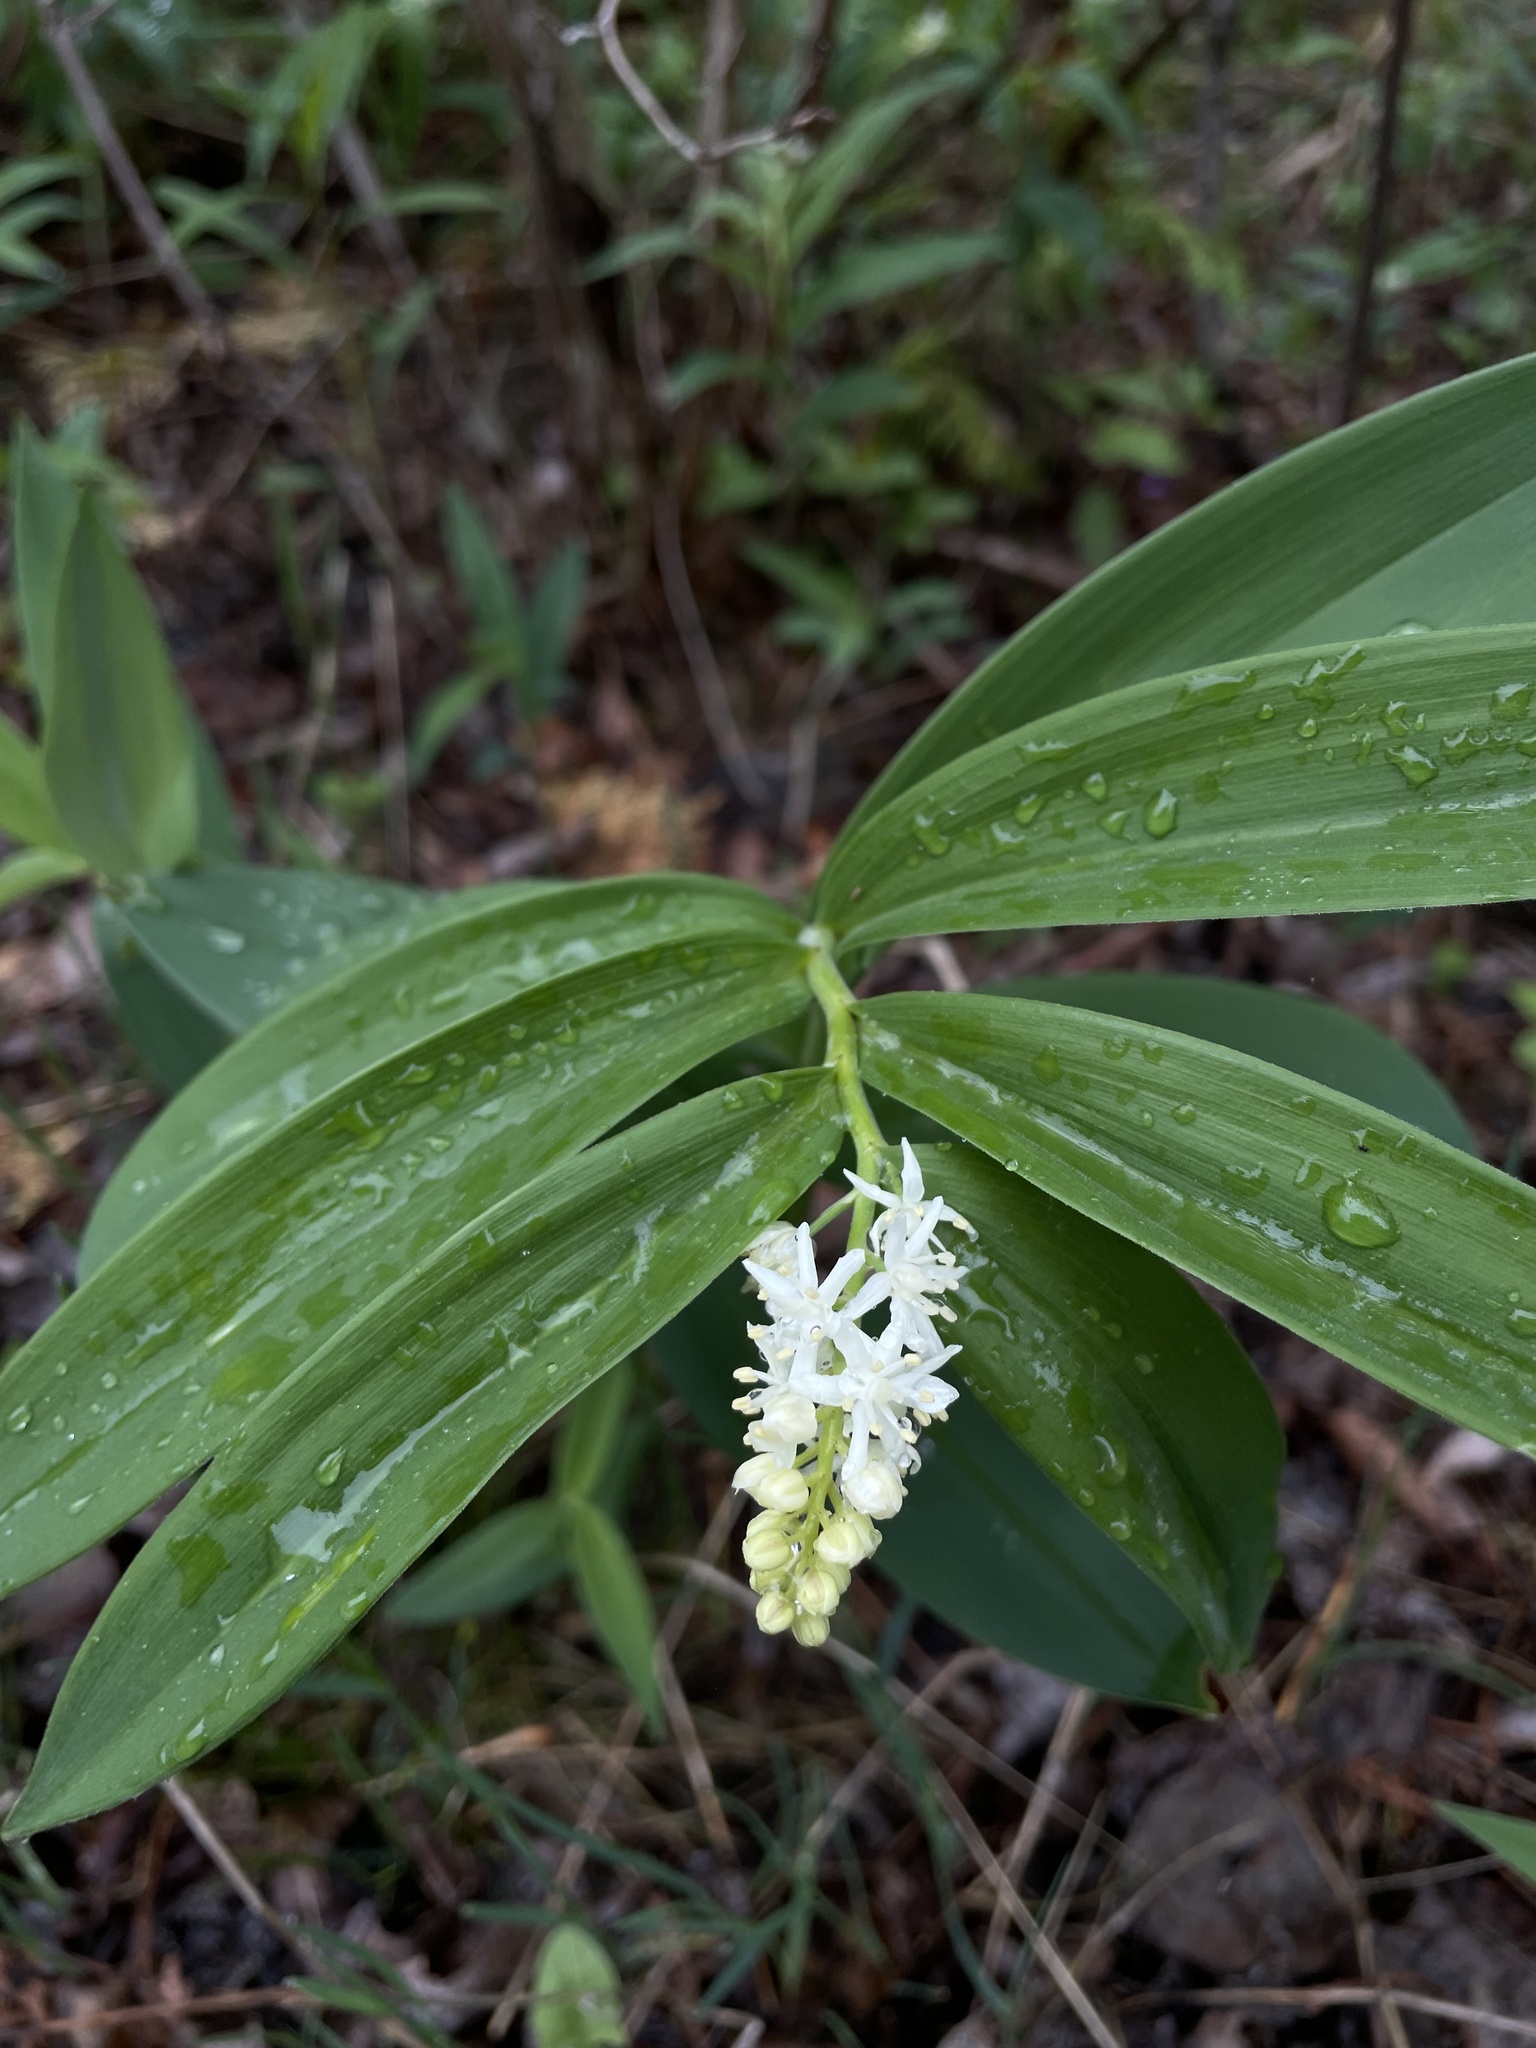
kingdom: Plantae
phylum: Tracheophyta
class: Liliopsida
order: Asparagales
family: Asparagaceae
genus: Maianthemum
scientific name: Maianthemum stellatum
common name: Little false solomon's seal
